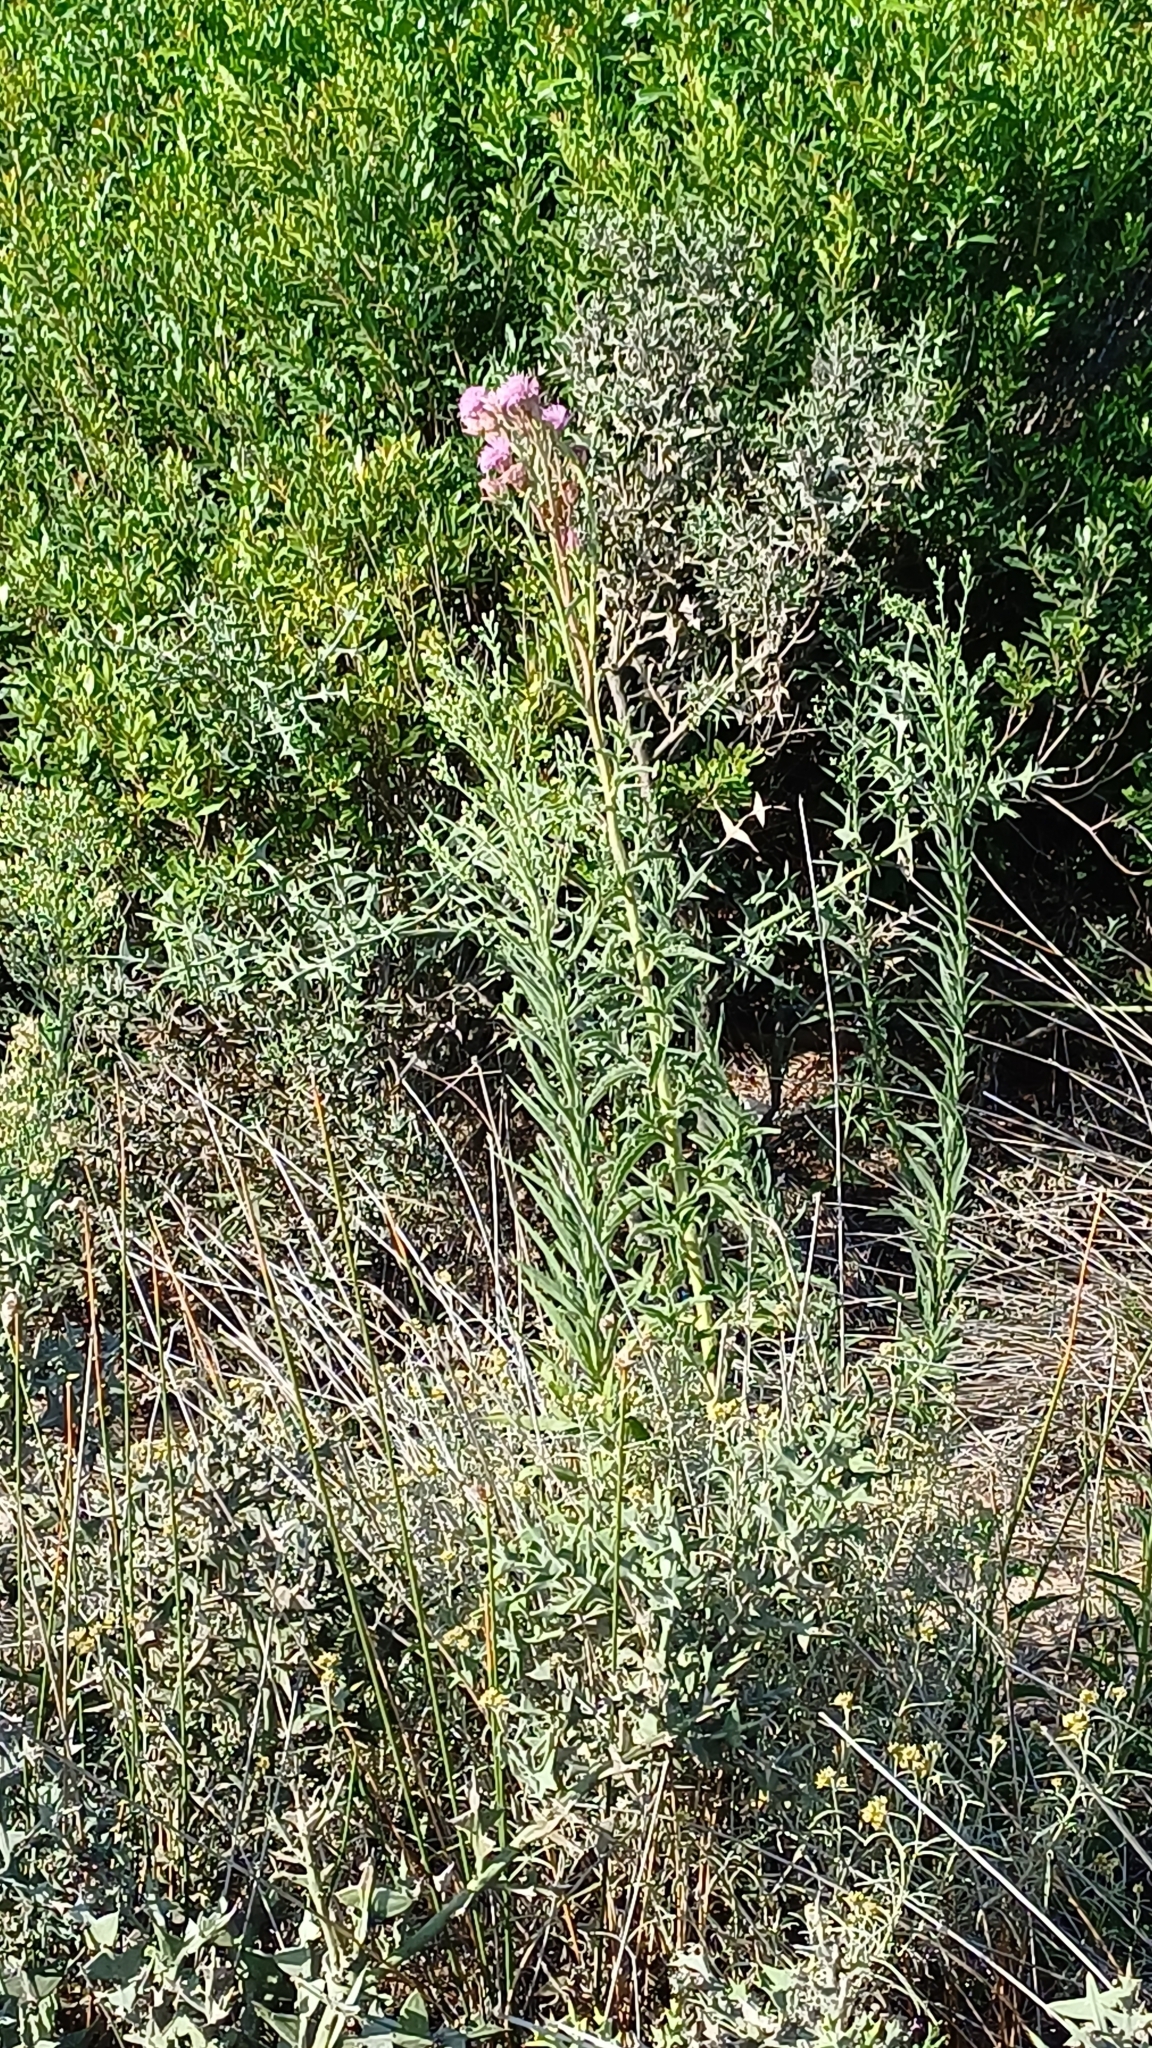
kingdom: Plantae
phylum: Tracheophyta
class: Magnoliopsida
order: Asterales
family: Asteraceae
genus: Campuloclinium
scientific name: Campuloclinium macrocephalum
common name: Pompomweed
